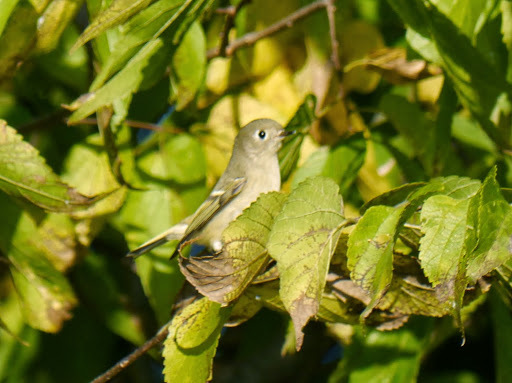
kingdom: Animalia
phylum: Chordata
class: Aves
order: Passeriformes
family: Regulidae
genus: Regulus
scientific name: Regulus calendula
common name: Ruby-crowned kinglet
